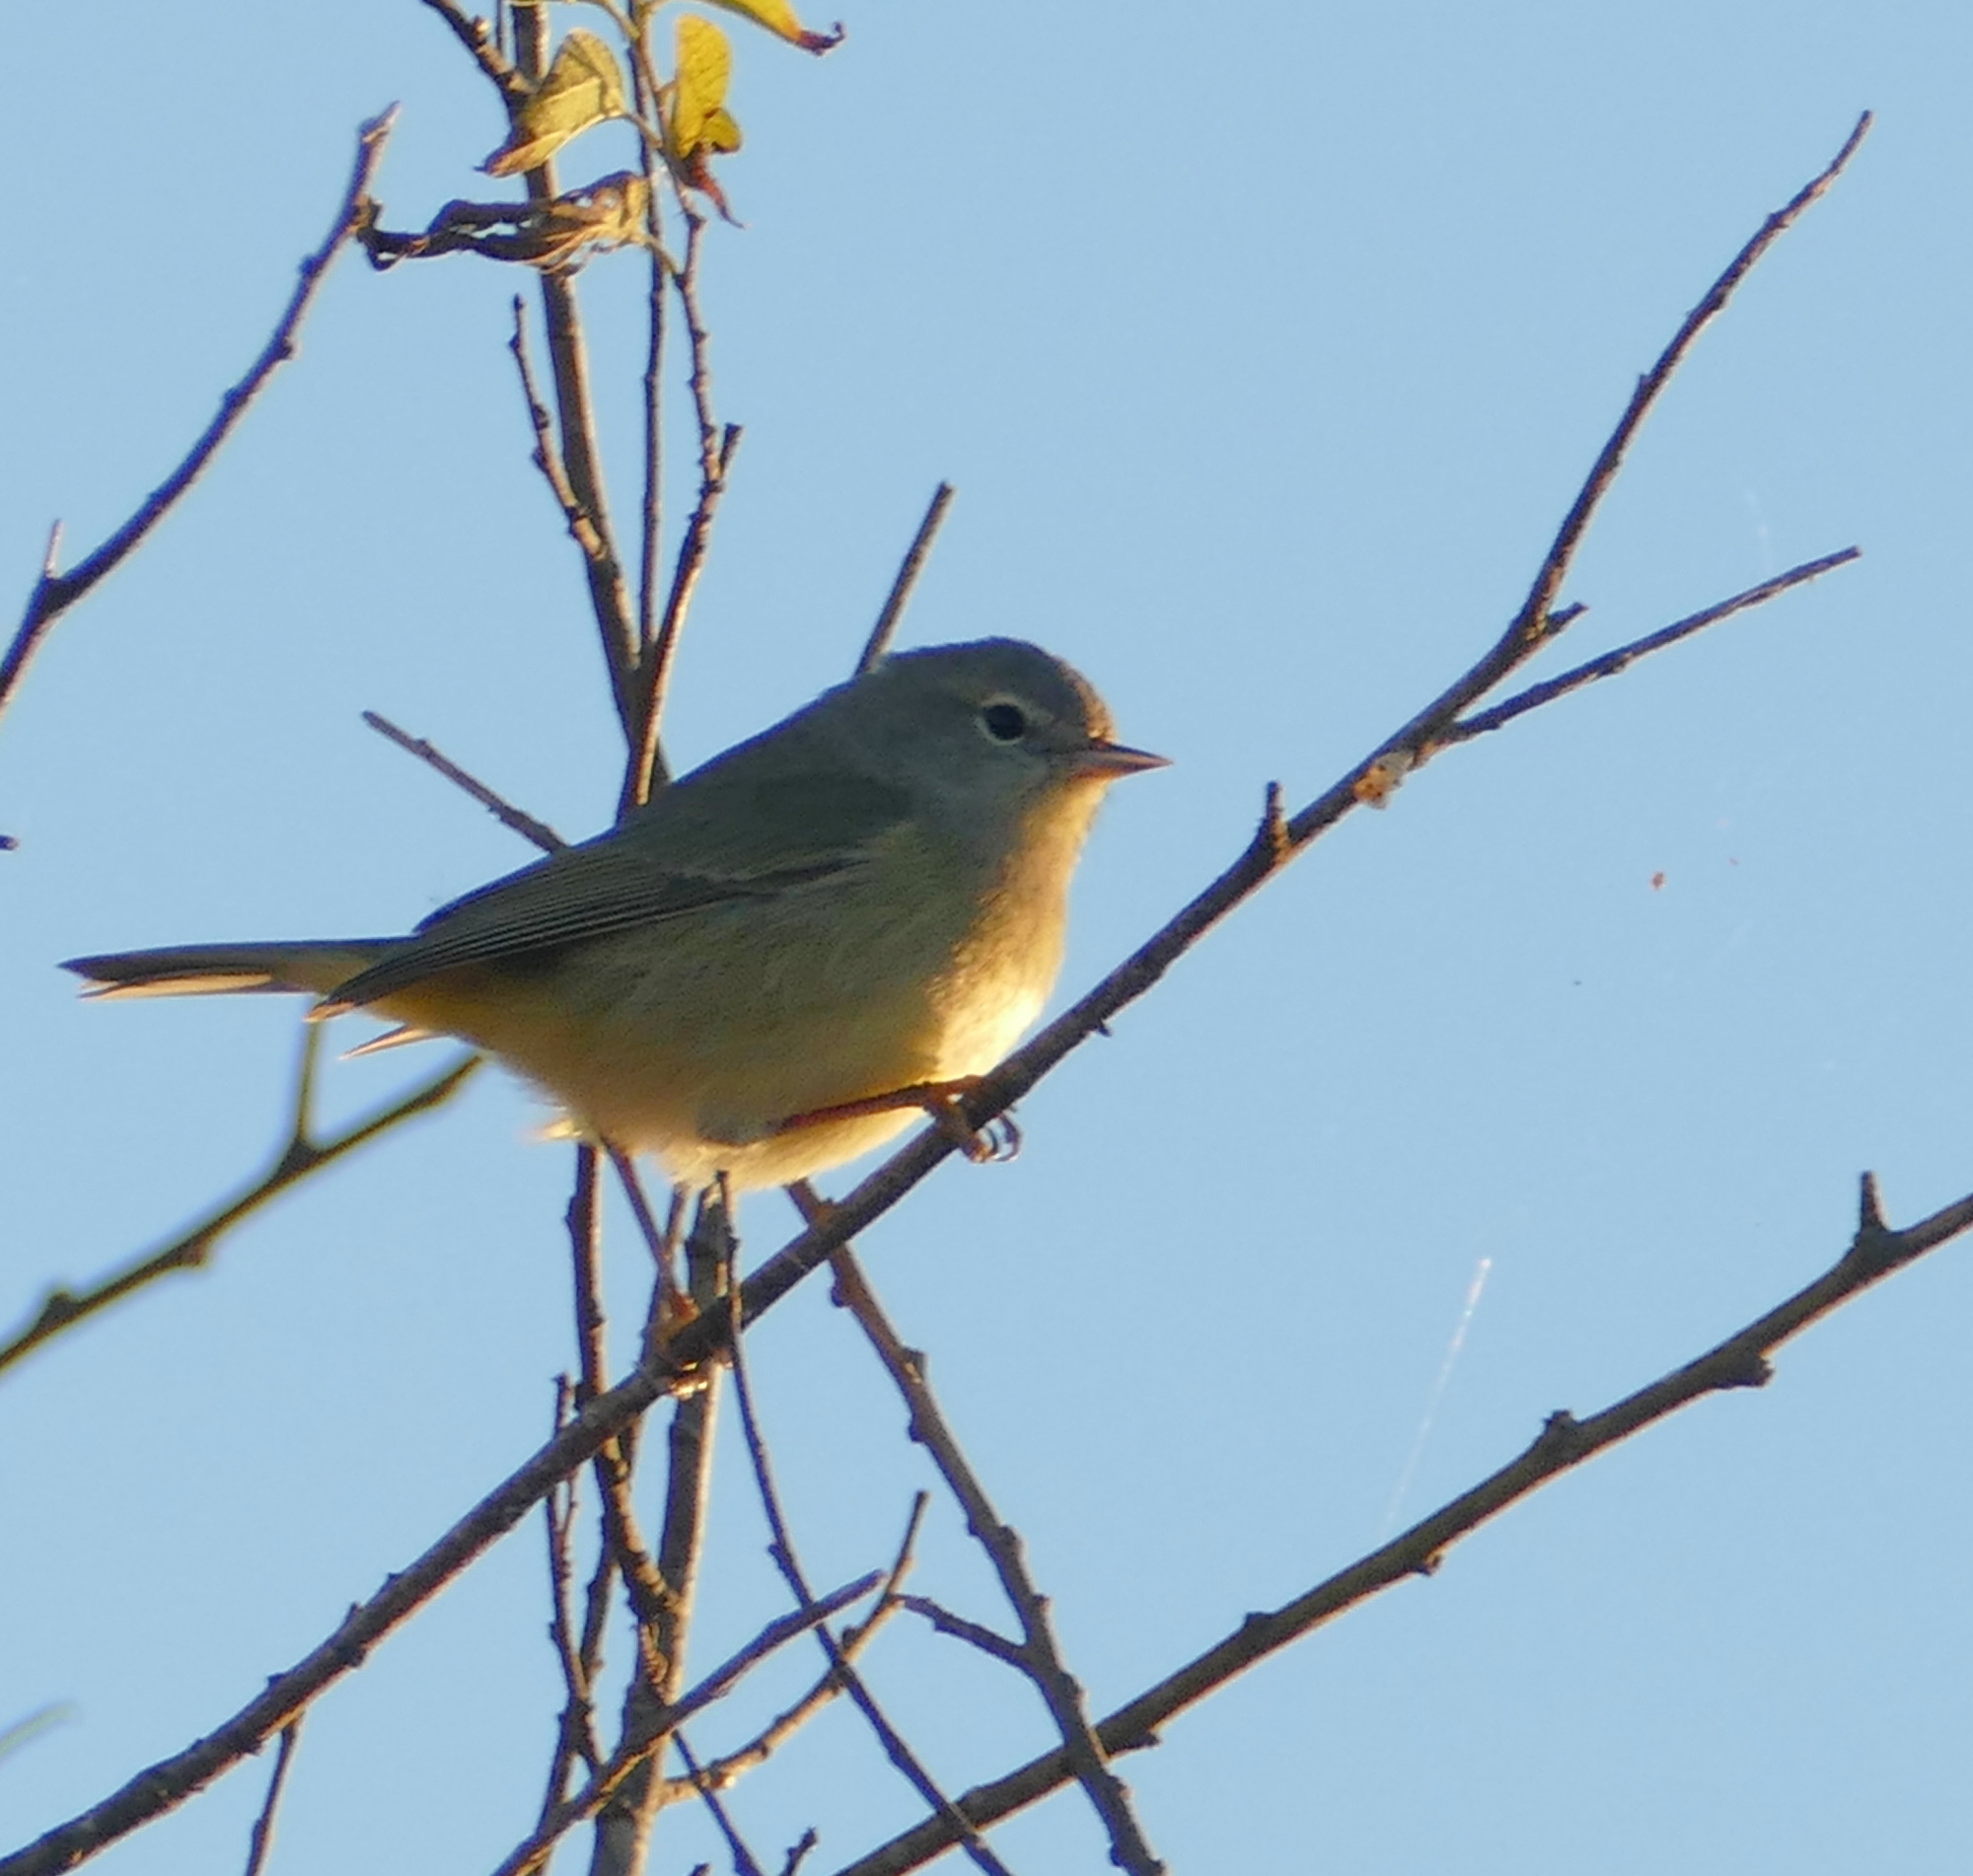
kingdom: Animalia
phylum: Chordata
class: Aves
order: Passeriformes
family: Parulidae
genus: Leiothlypis
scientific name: Leiothlypis celata
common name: Orange-crowned warbler
